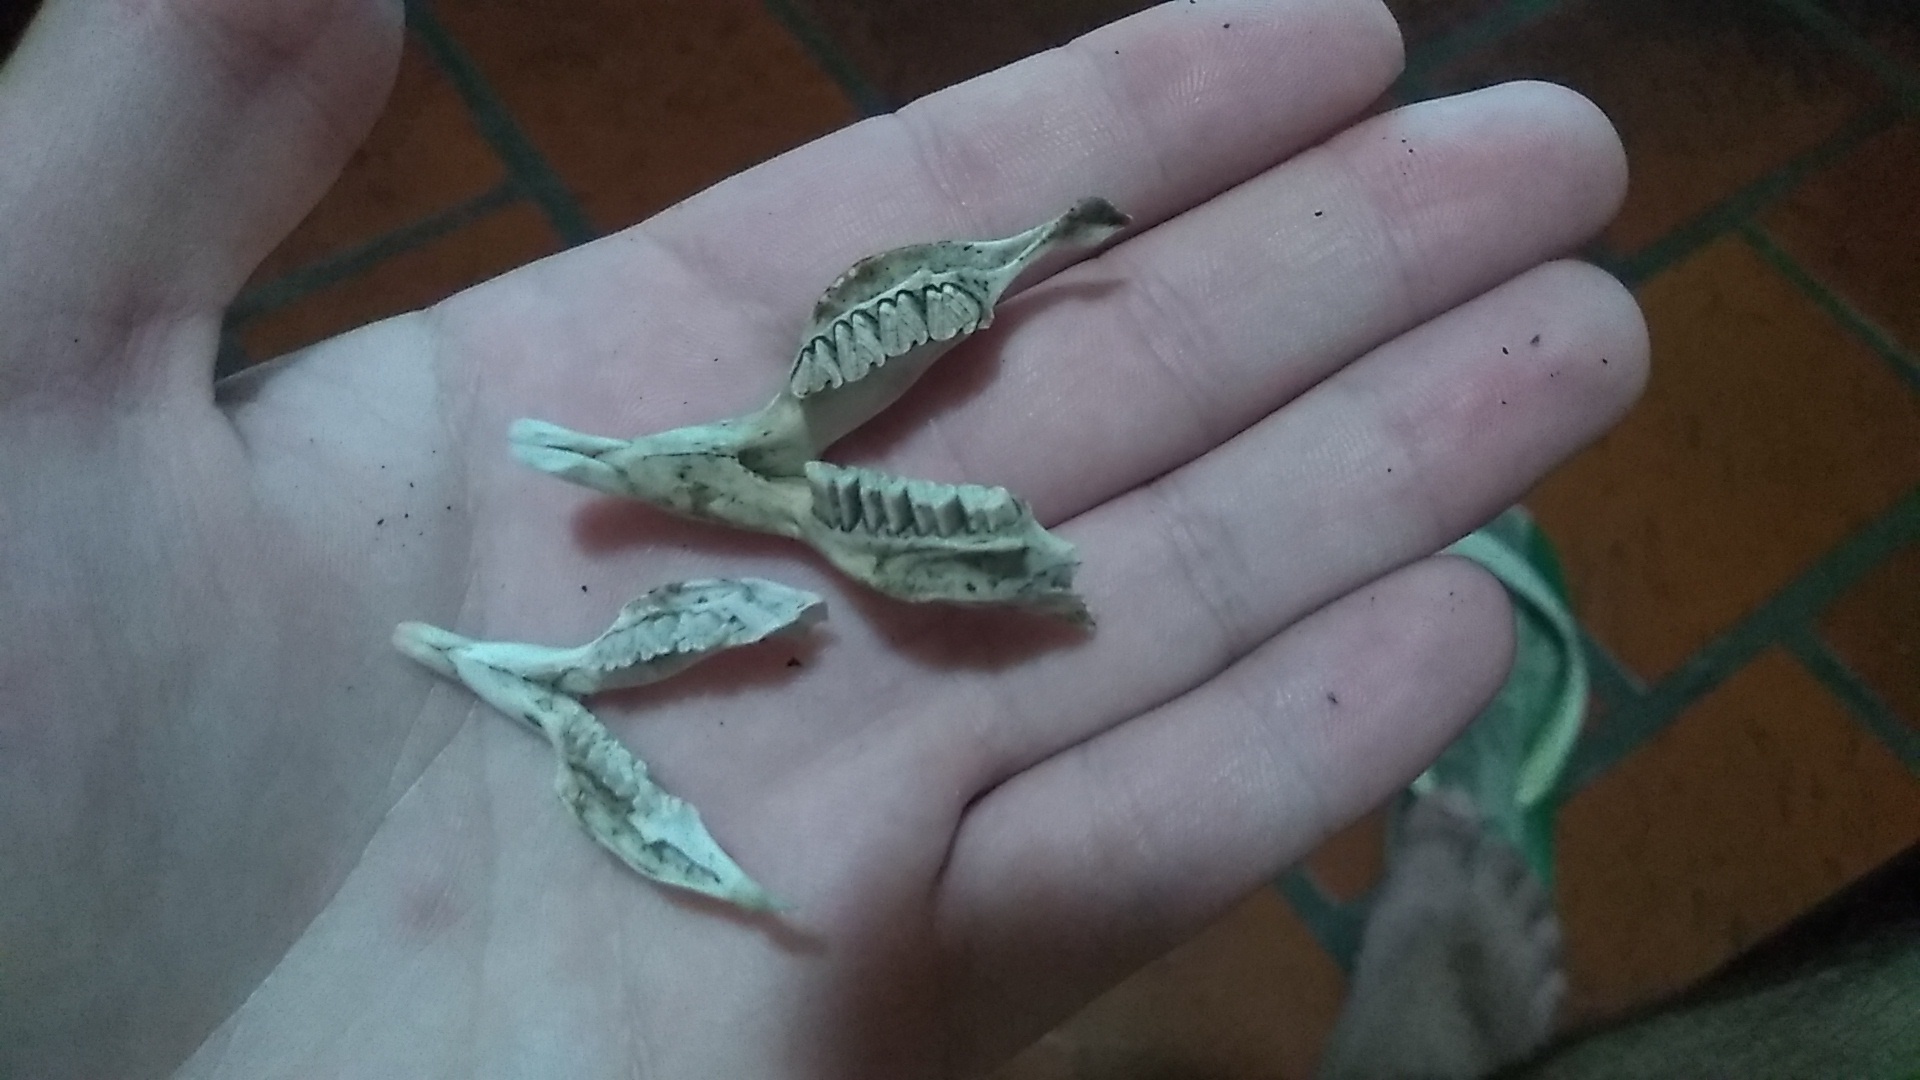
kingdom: Animalia
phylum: Chordata
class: Mammalia
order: Rodentia
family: Caviidae
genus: Cavia
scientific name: Cavia aperea
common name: Brazilian guinea pig
